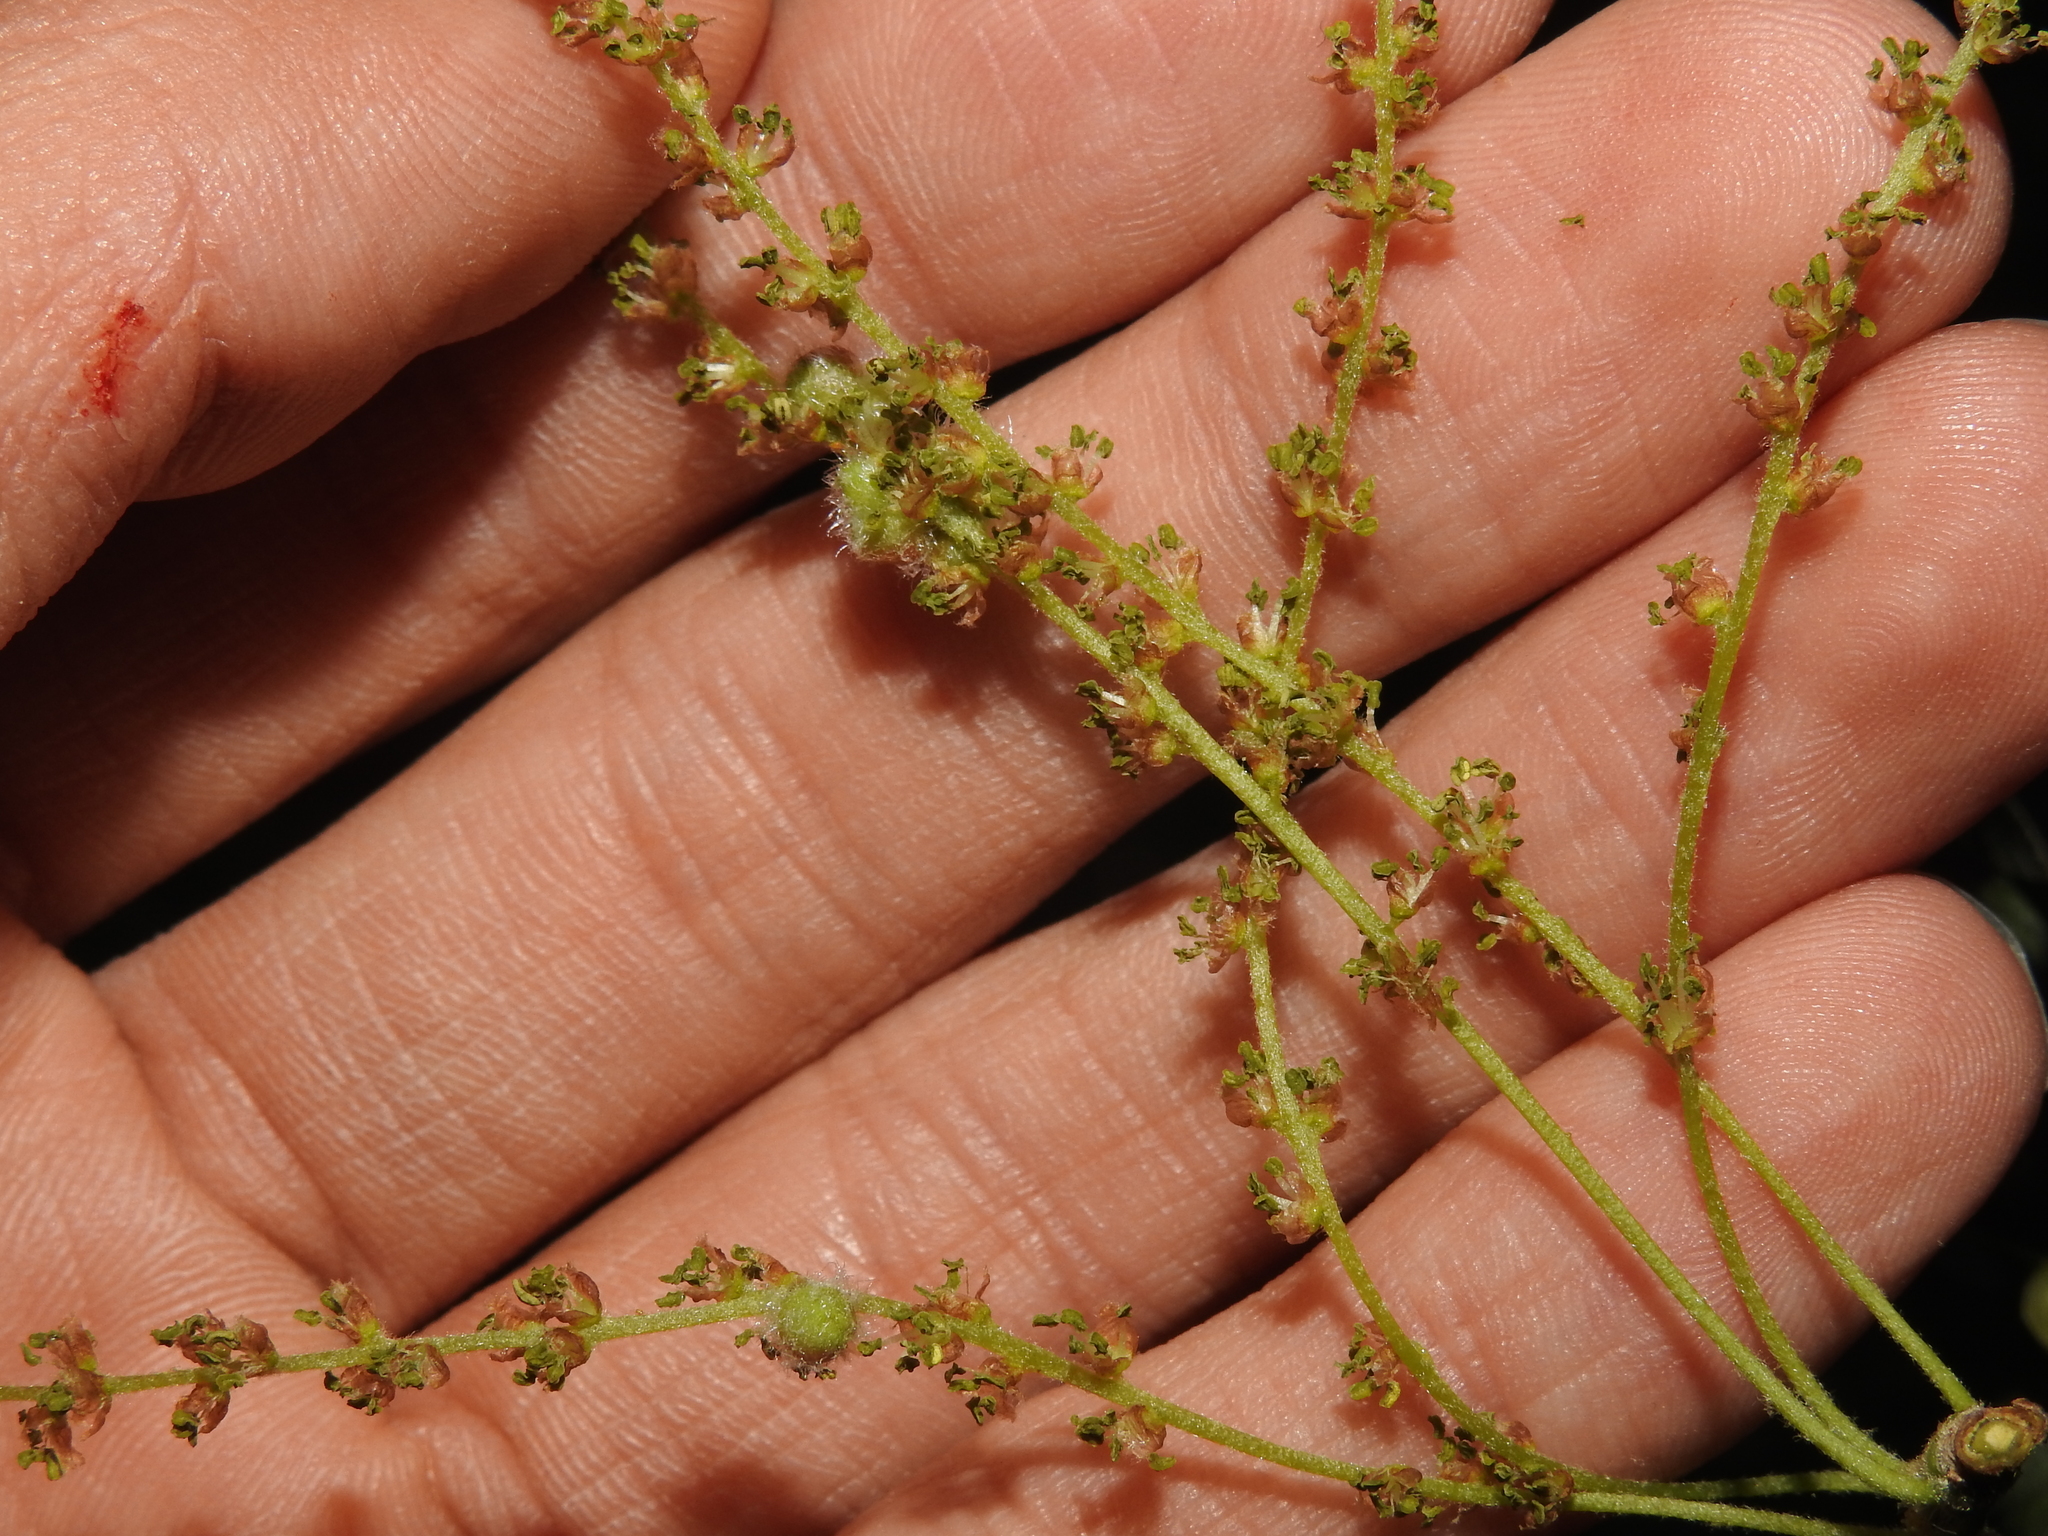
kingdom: Animalia
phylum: Arthropoda
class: Insecta
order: Hymenoptera
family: Cynipidae
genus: Callirhytis
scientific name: Callirhytis
